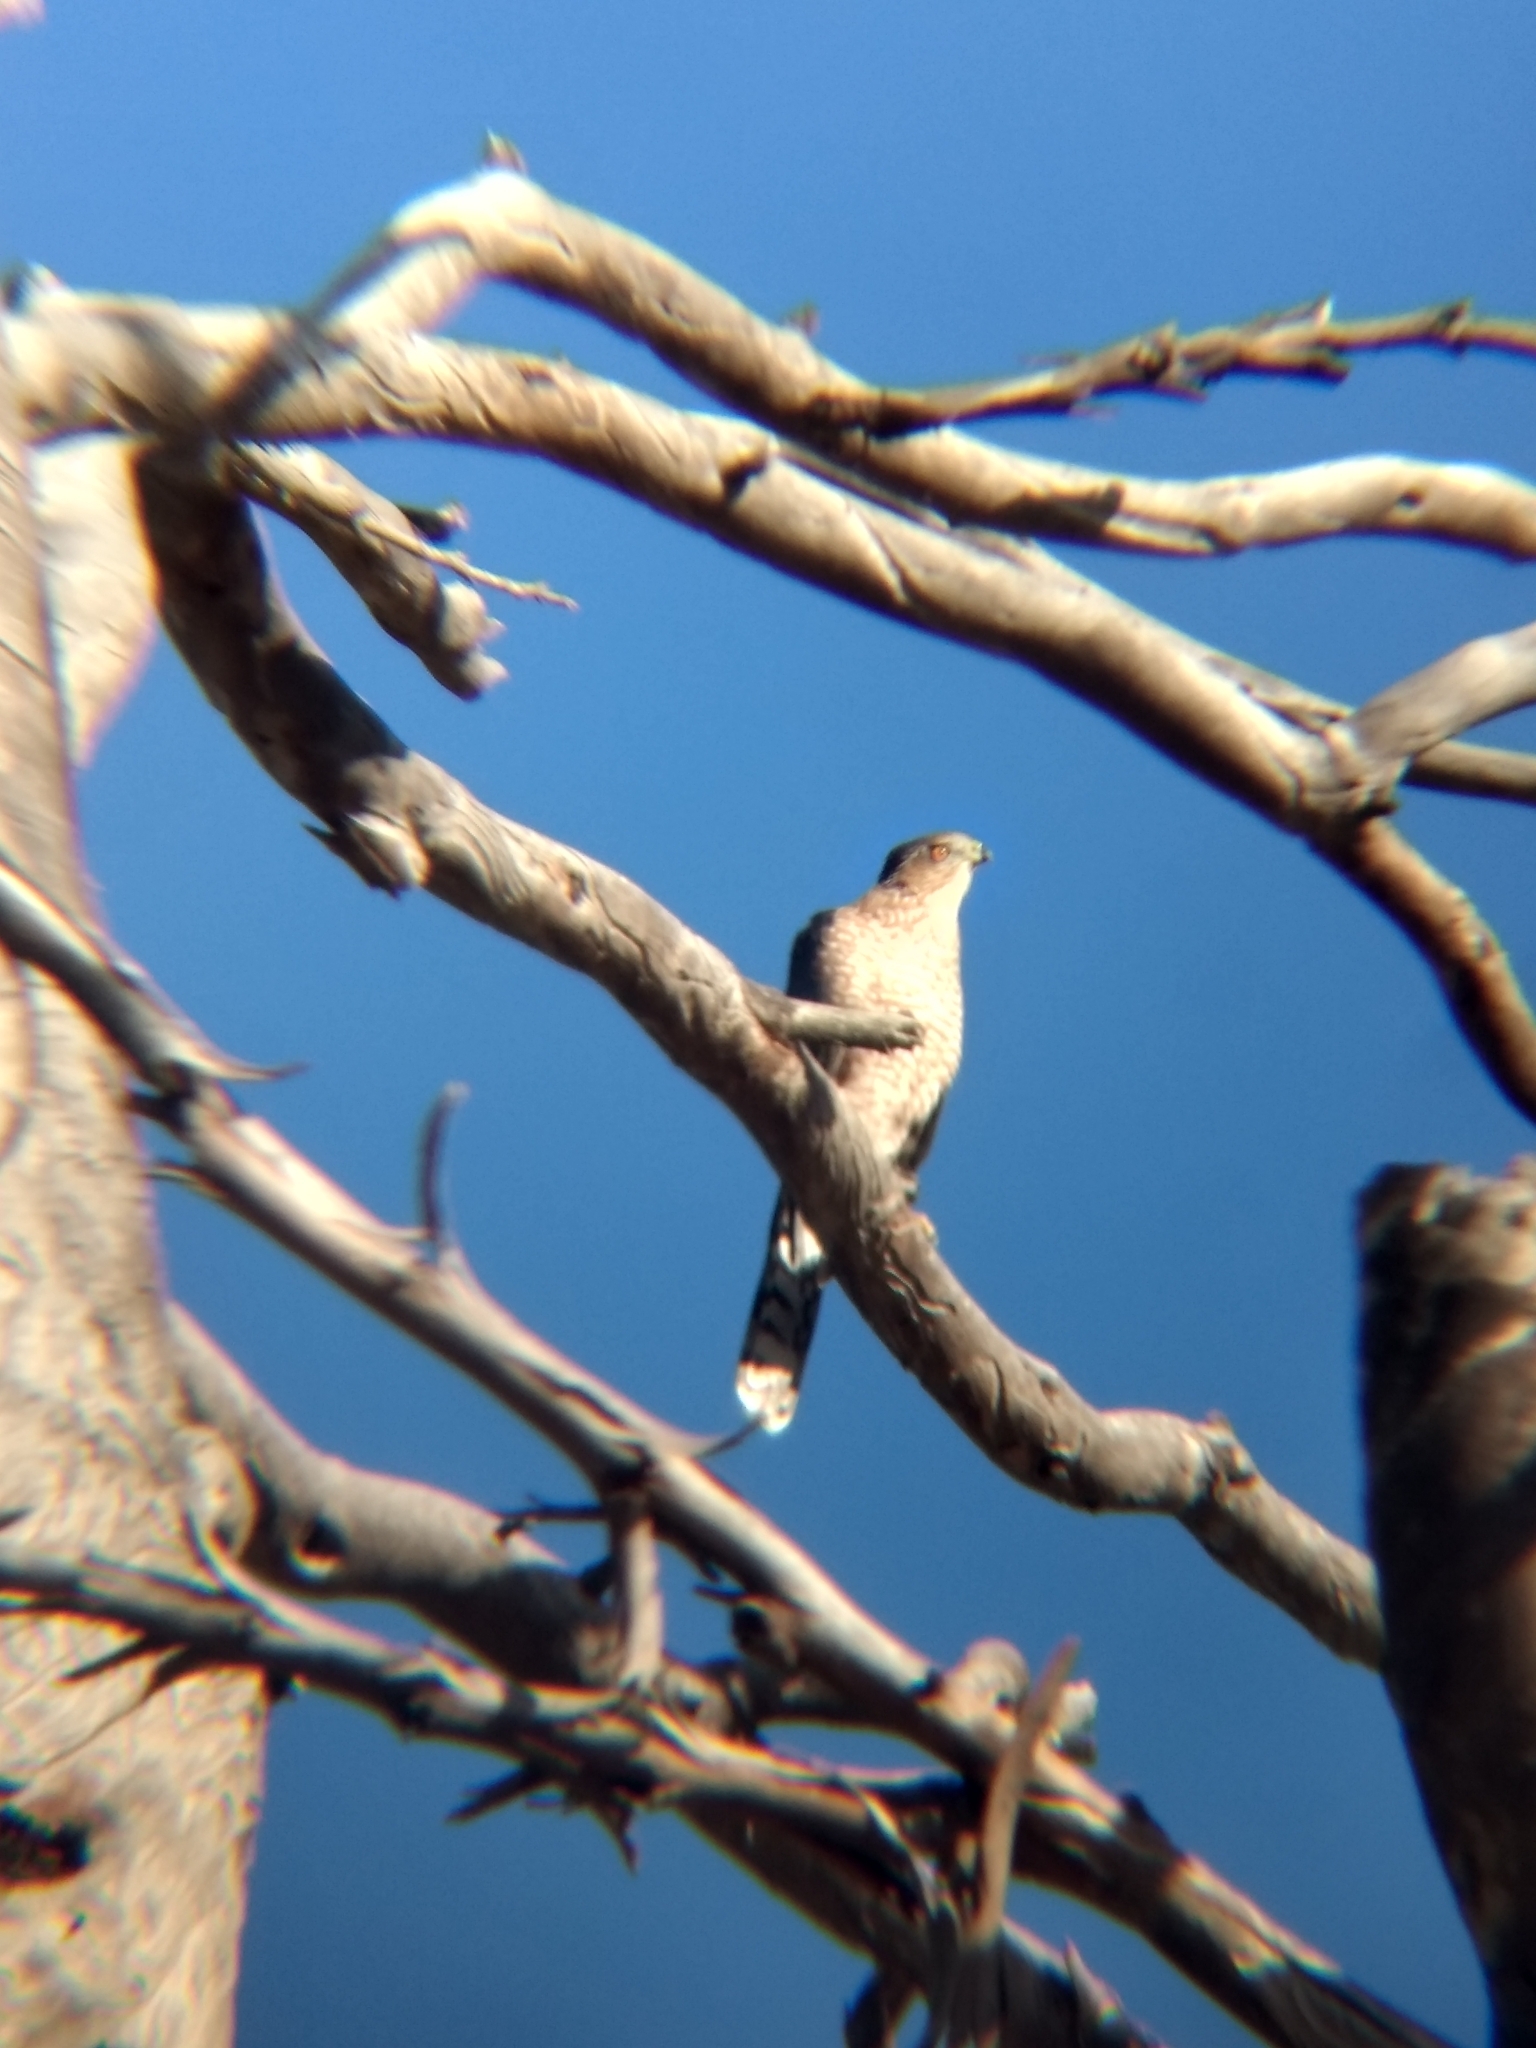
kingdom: Animalia
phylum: Chordata
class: Aves
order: Accipitriformes
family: Accipitridae
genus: Accipiter
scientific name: Accipiter cooperii
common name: Cooper's hawk
